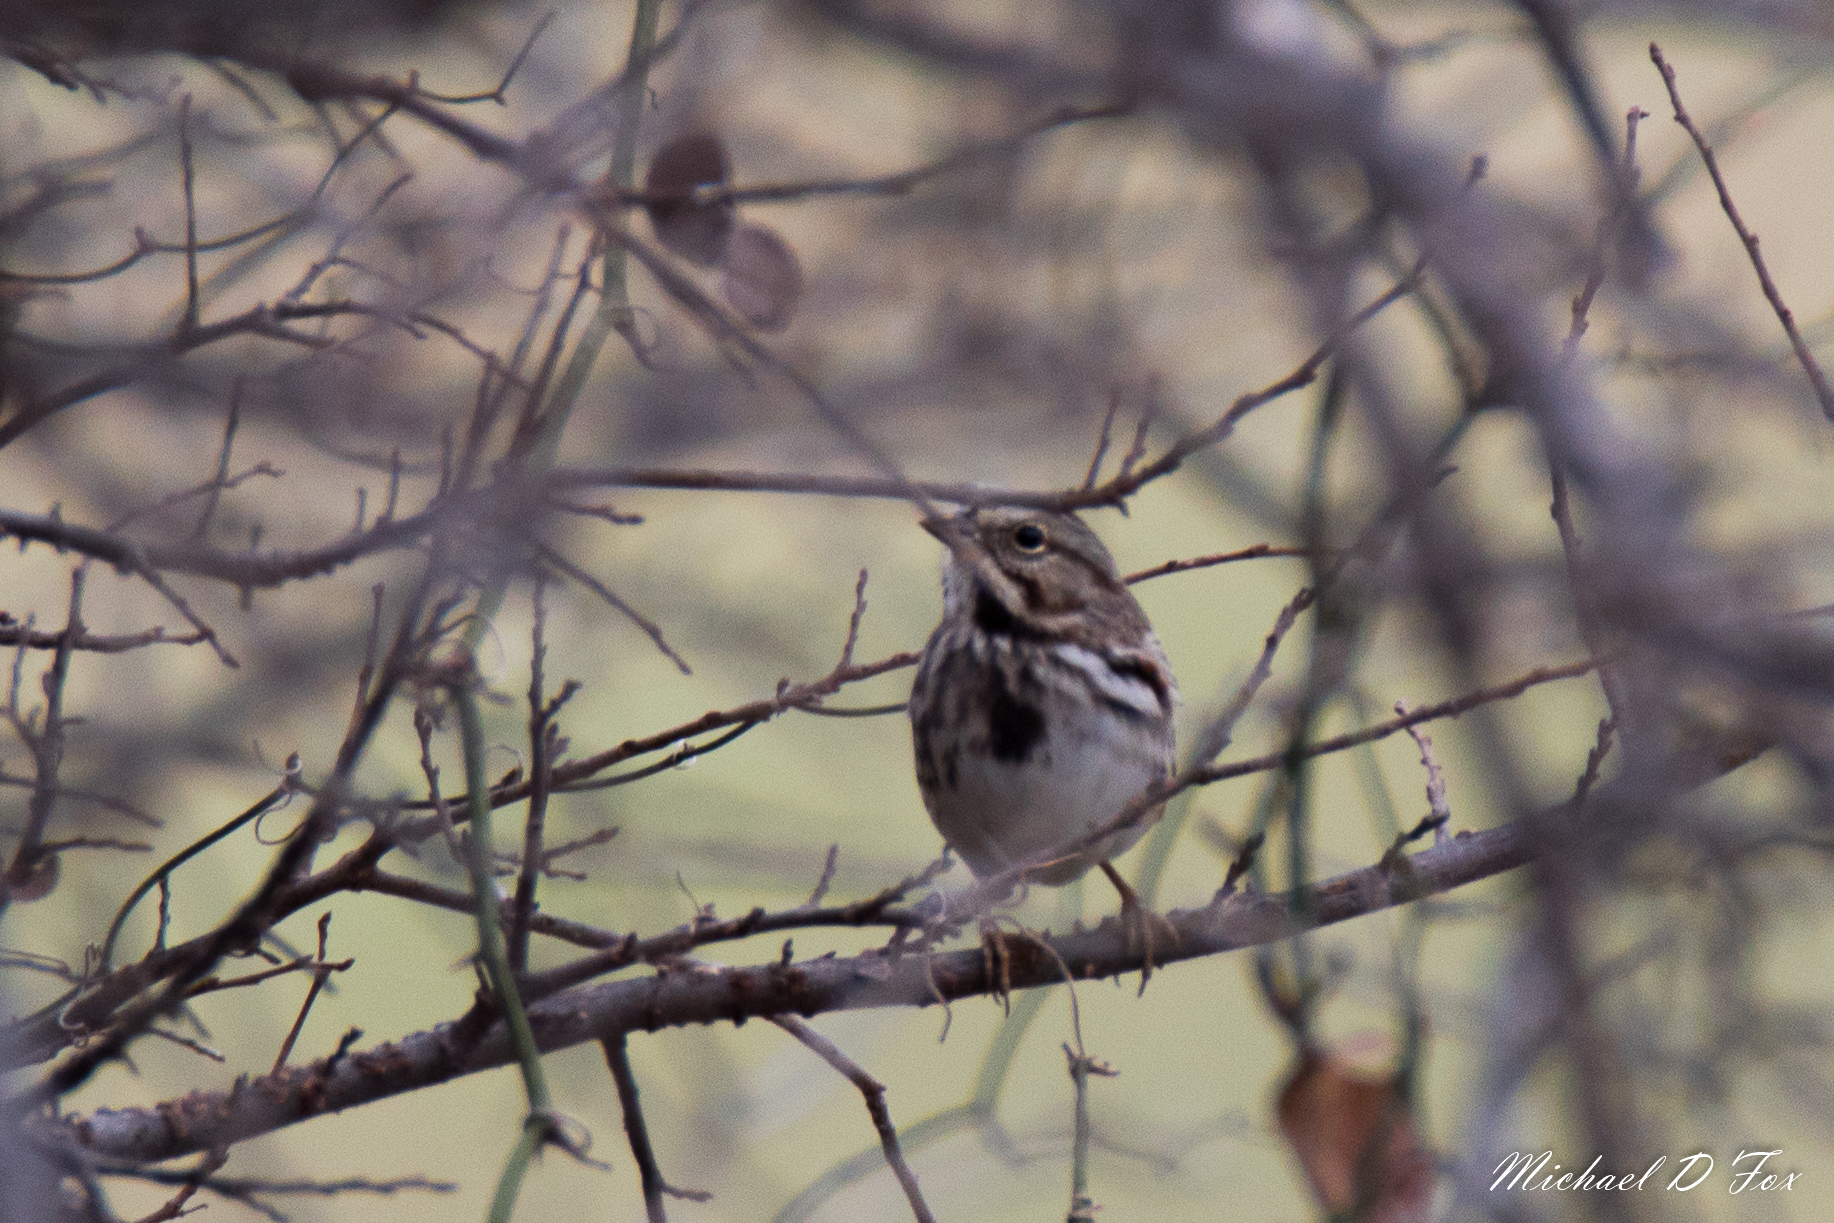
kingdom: Animalia
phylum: Chordata
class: Aves
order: Passeriformes
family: Passerellidae
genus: Melospiza
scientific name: Melospiza melodia
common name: Song sparrow
